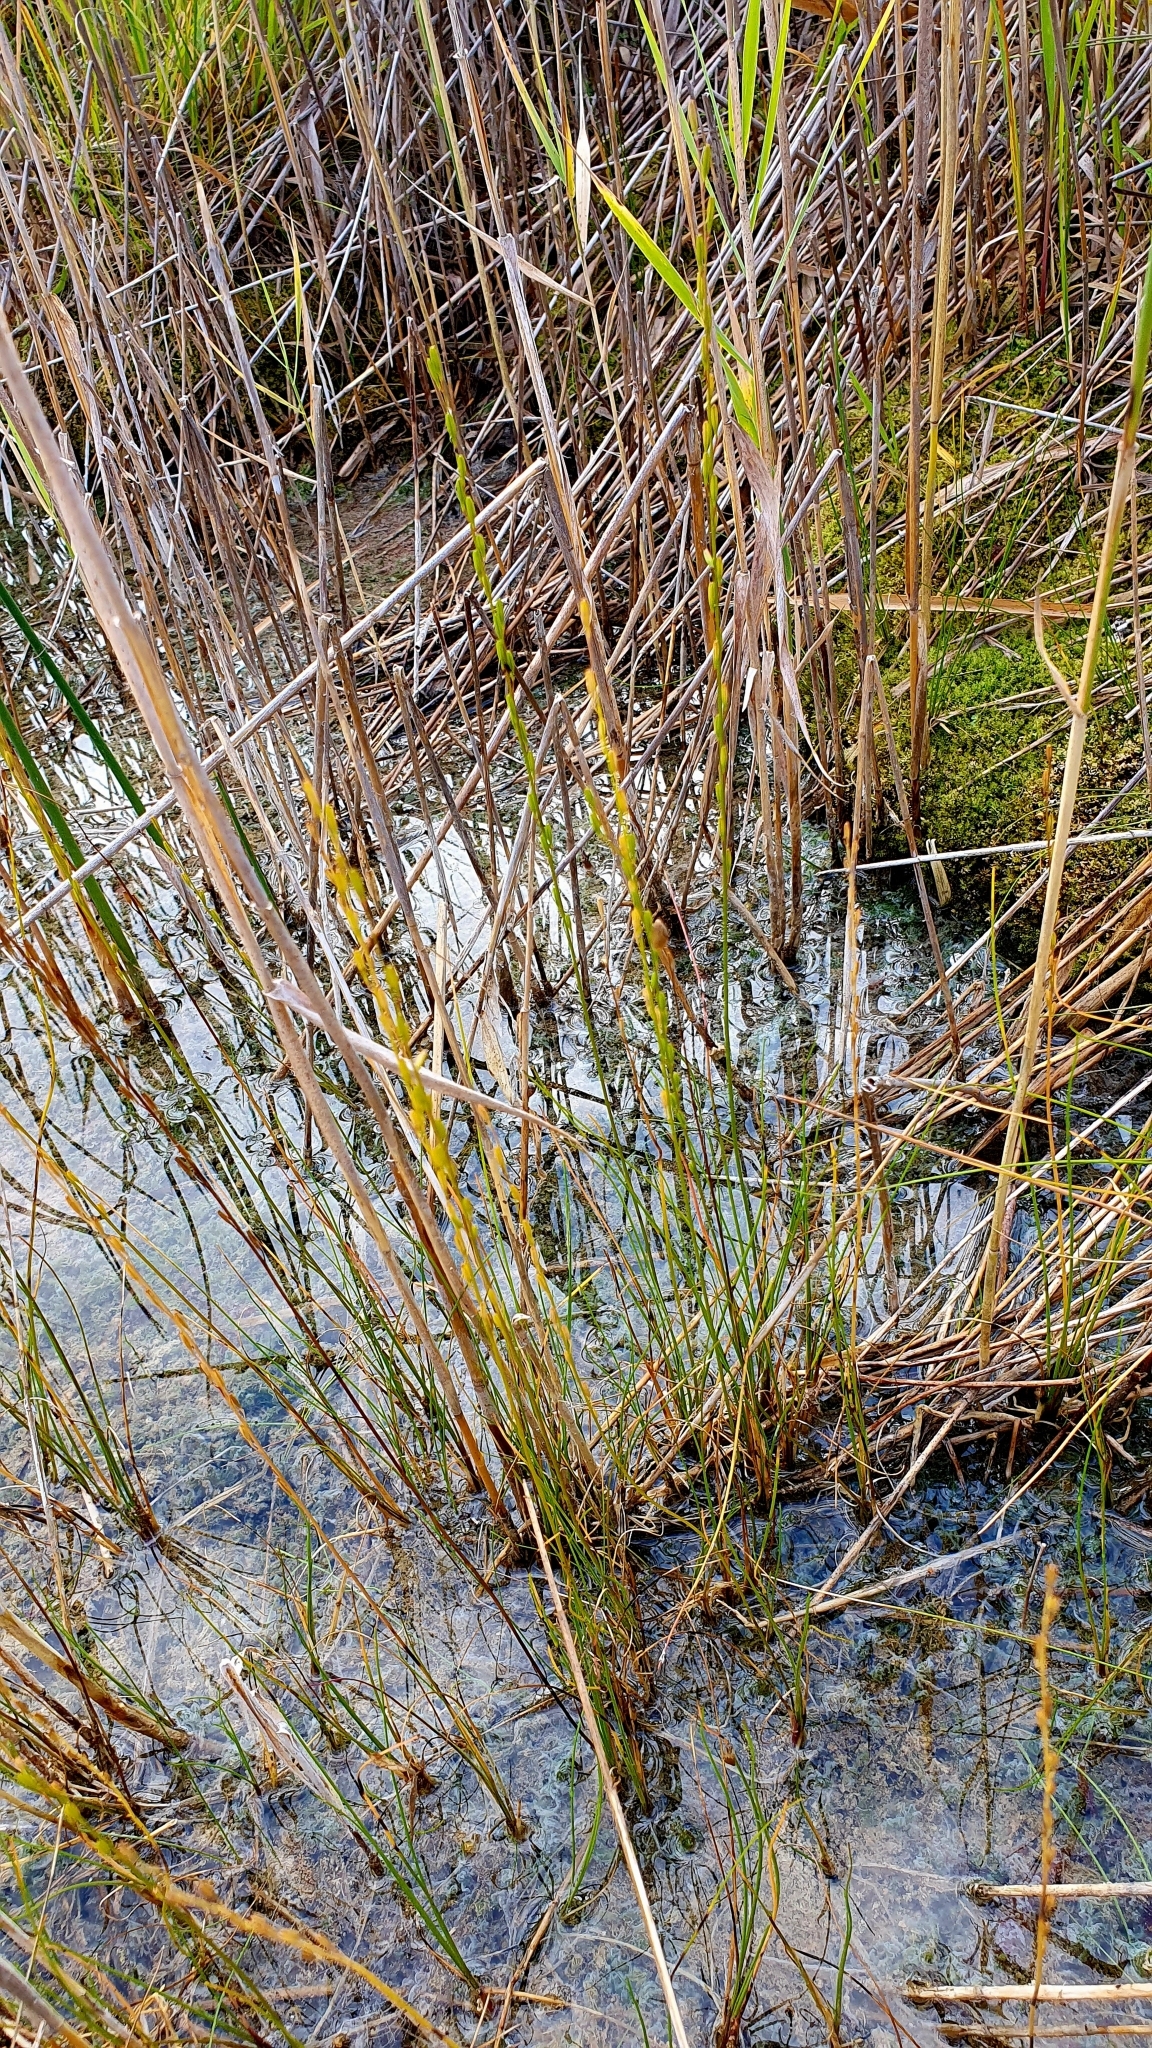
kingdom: Plantae
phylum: Tracheophyta
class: Liliopsida
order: Alismatales
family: Juncaginaceae
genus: Triglochin
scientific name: Triglochin palustris
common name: Marsh arrowgrass
